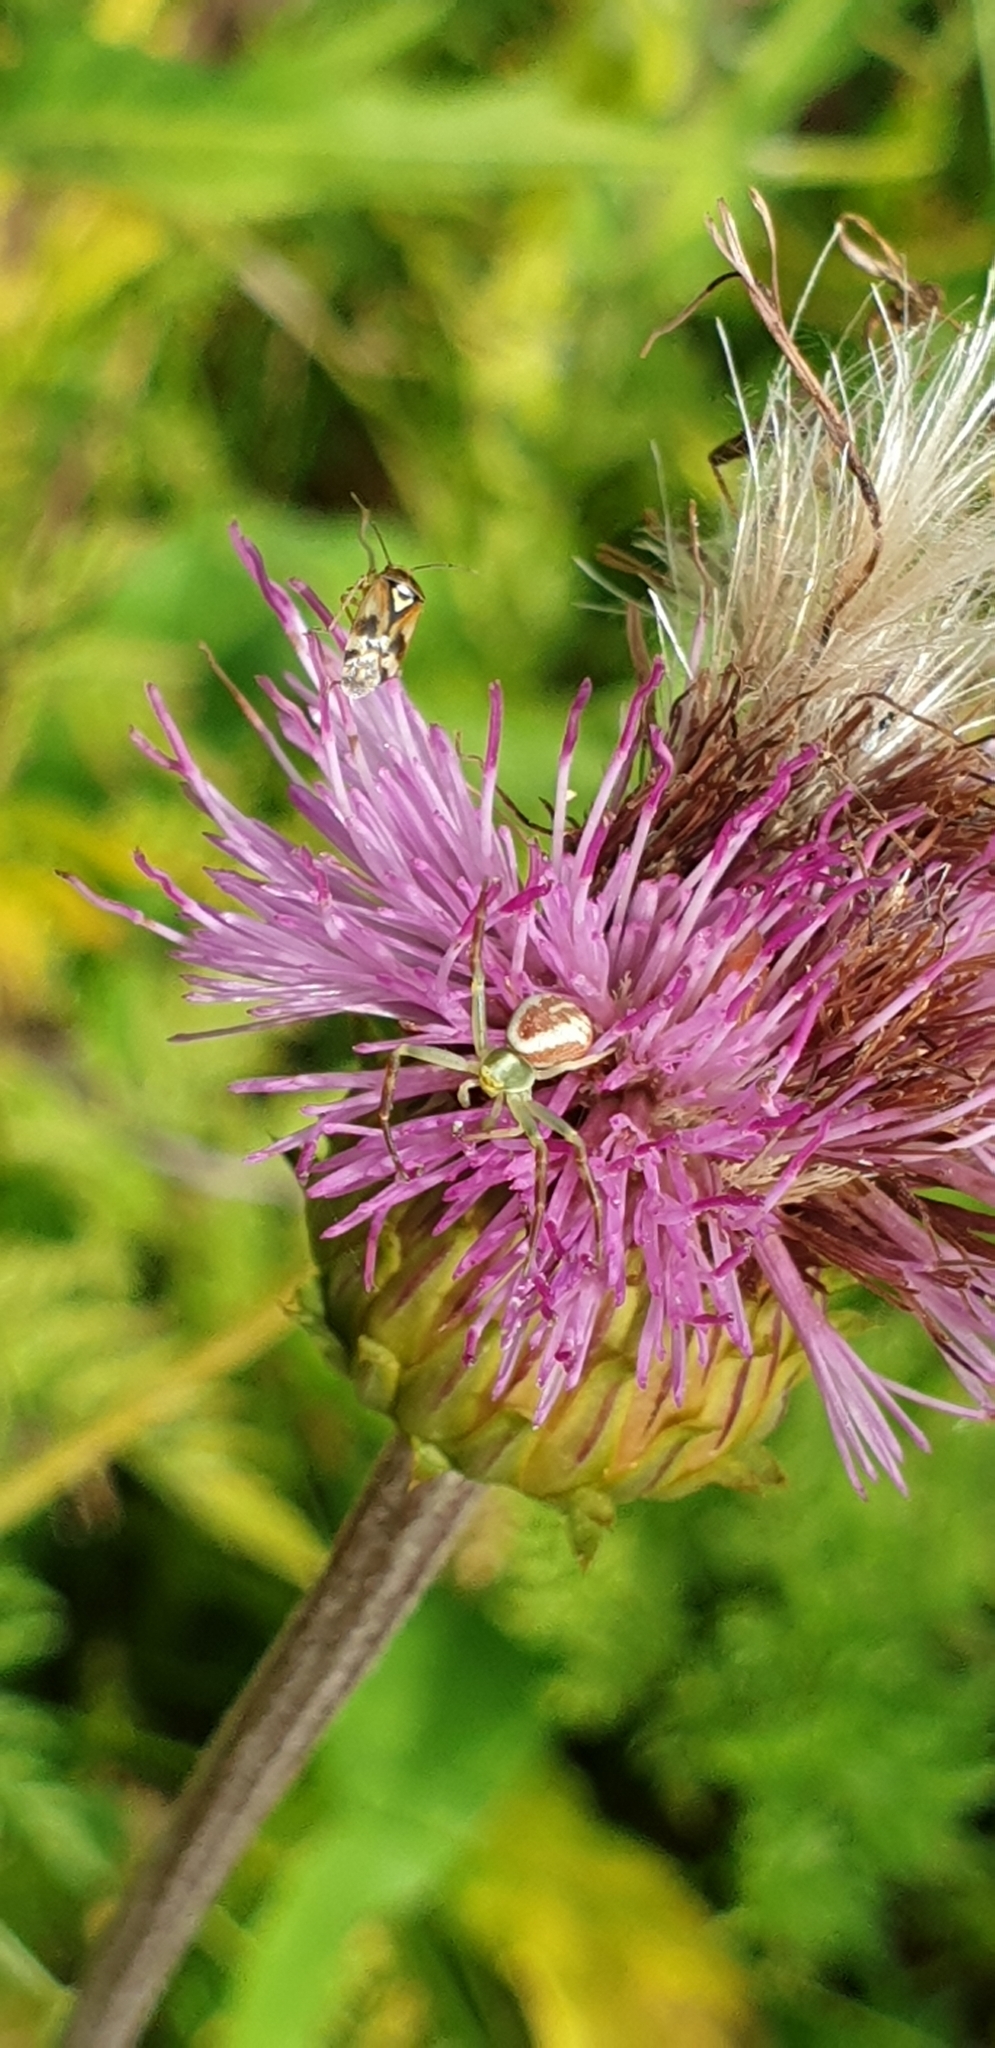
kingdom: Animalia
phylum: Arthropoda
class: Arachnida
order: Araneae
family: Thomisidae
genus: Misumena
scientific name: Misumena vatia
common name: Goldenrod crab spider
